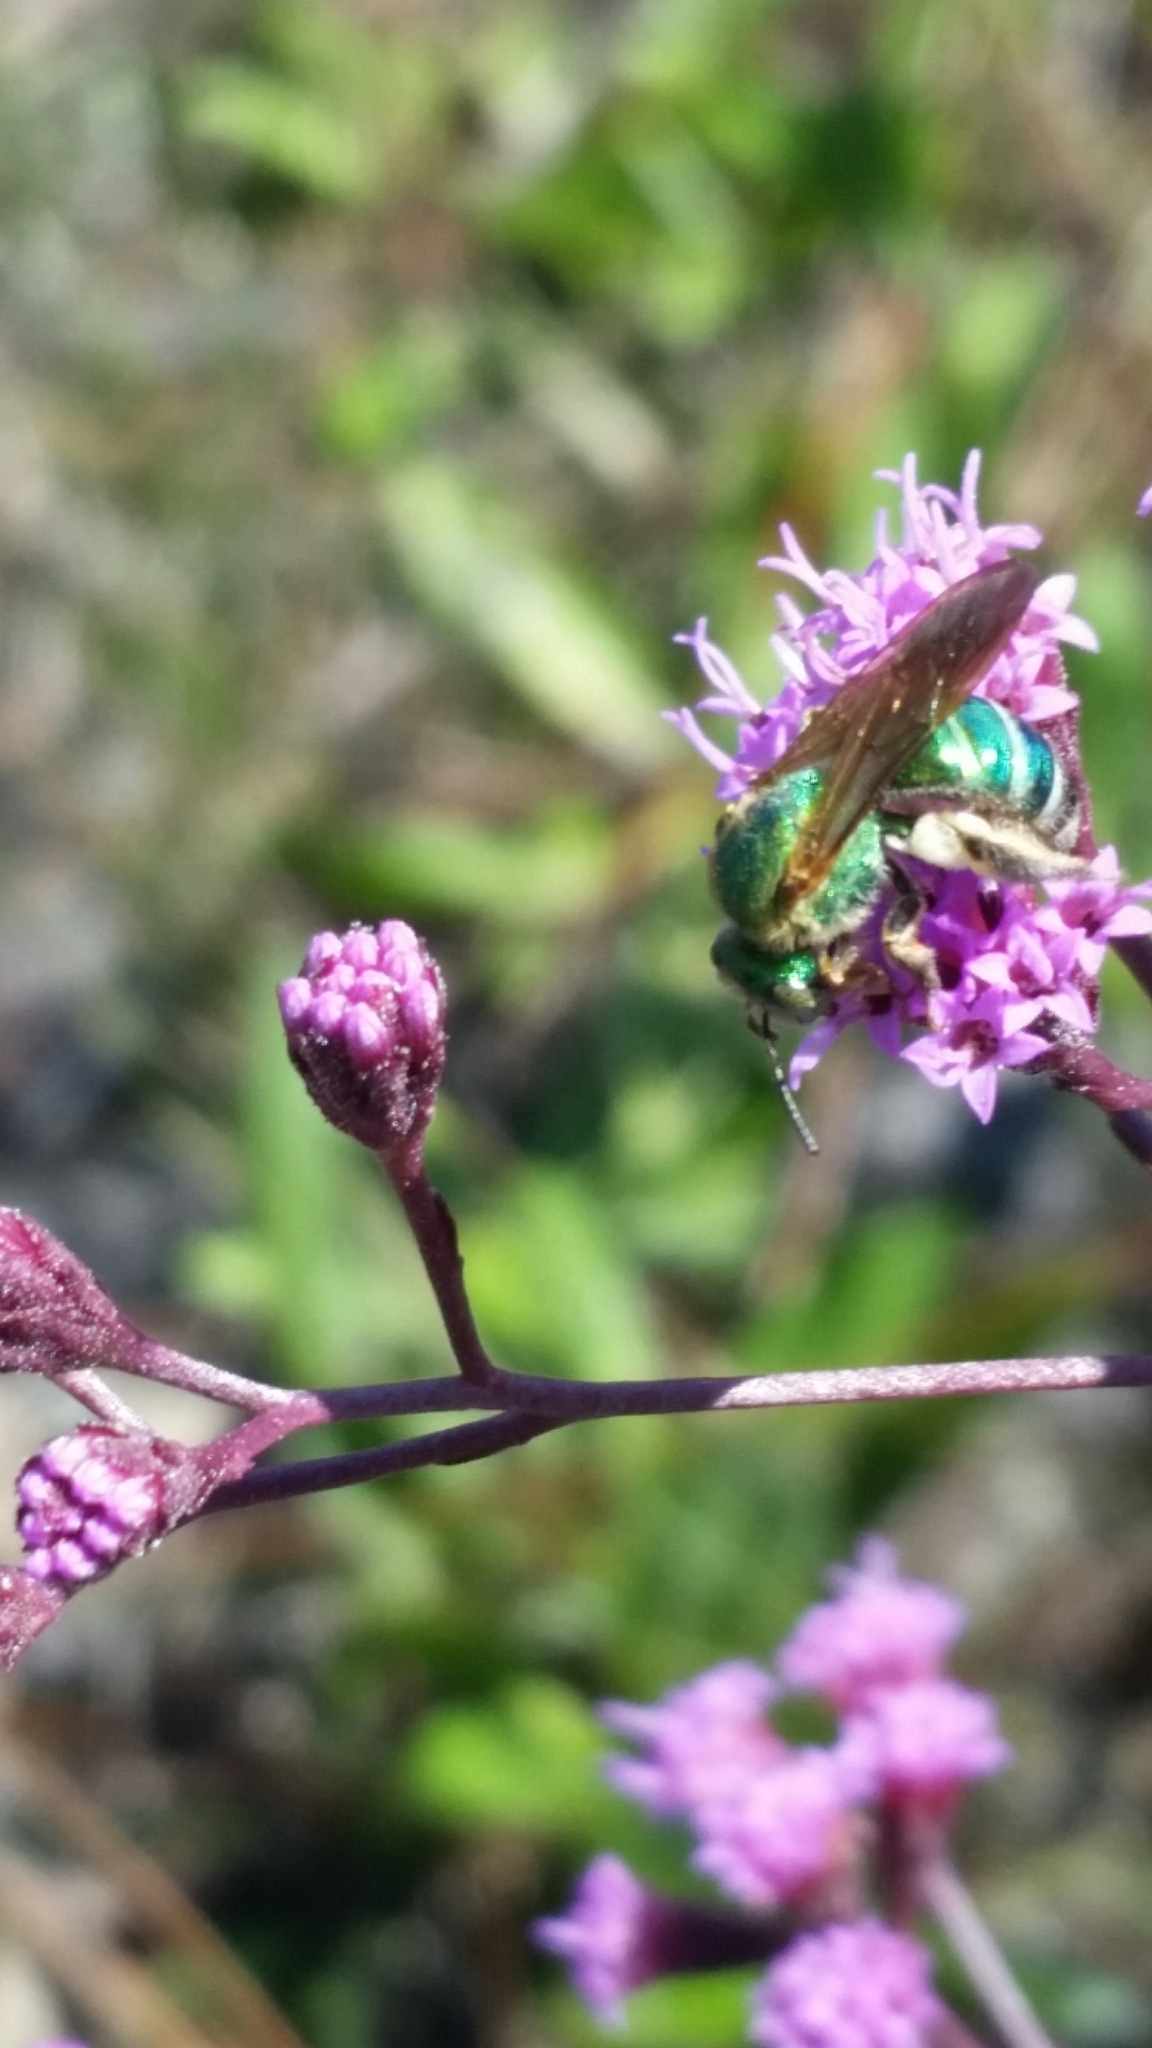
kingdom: Animalia
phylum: Arthropoda
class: Insecta
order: Hymenoptera
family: Halictidae
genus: Agapostemon
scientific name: Agapostemon splendens
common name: Brown-winged striped sweat bee
